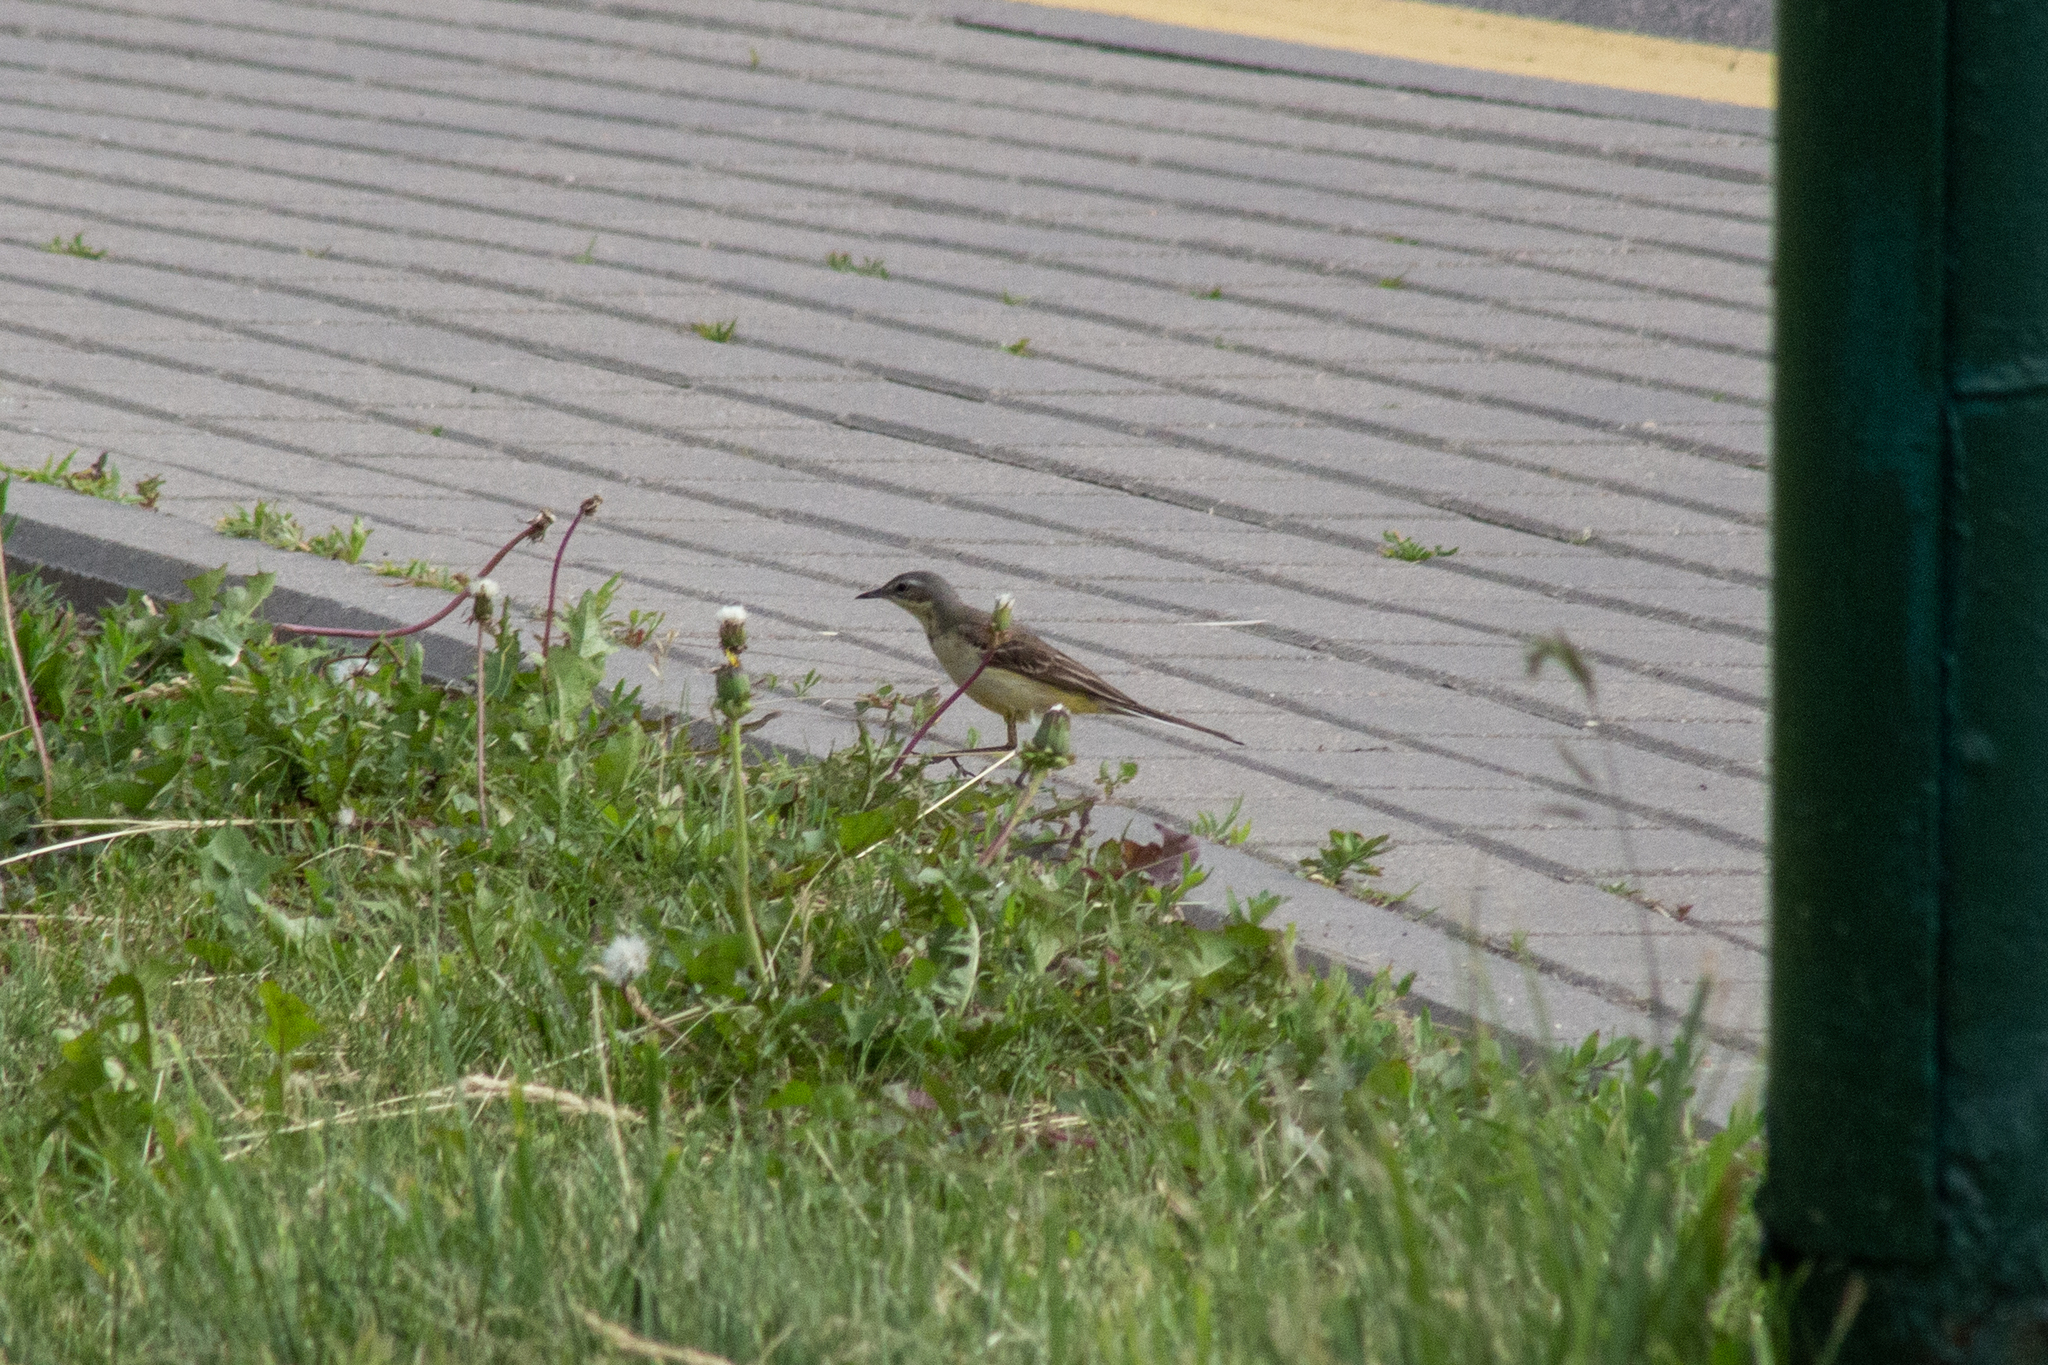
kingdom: Animalia
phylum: Chordata
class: Aves
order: Passeriformes
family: Motacillidae
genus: Motacilla
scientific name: Motacilla flava
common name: Western yellow wagtail
